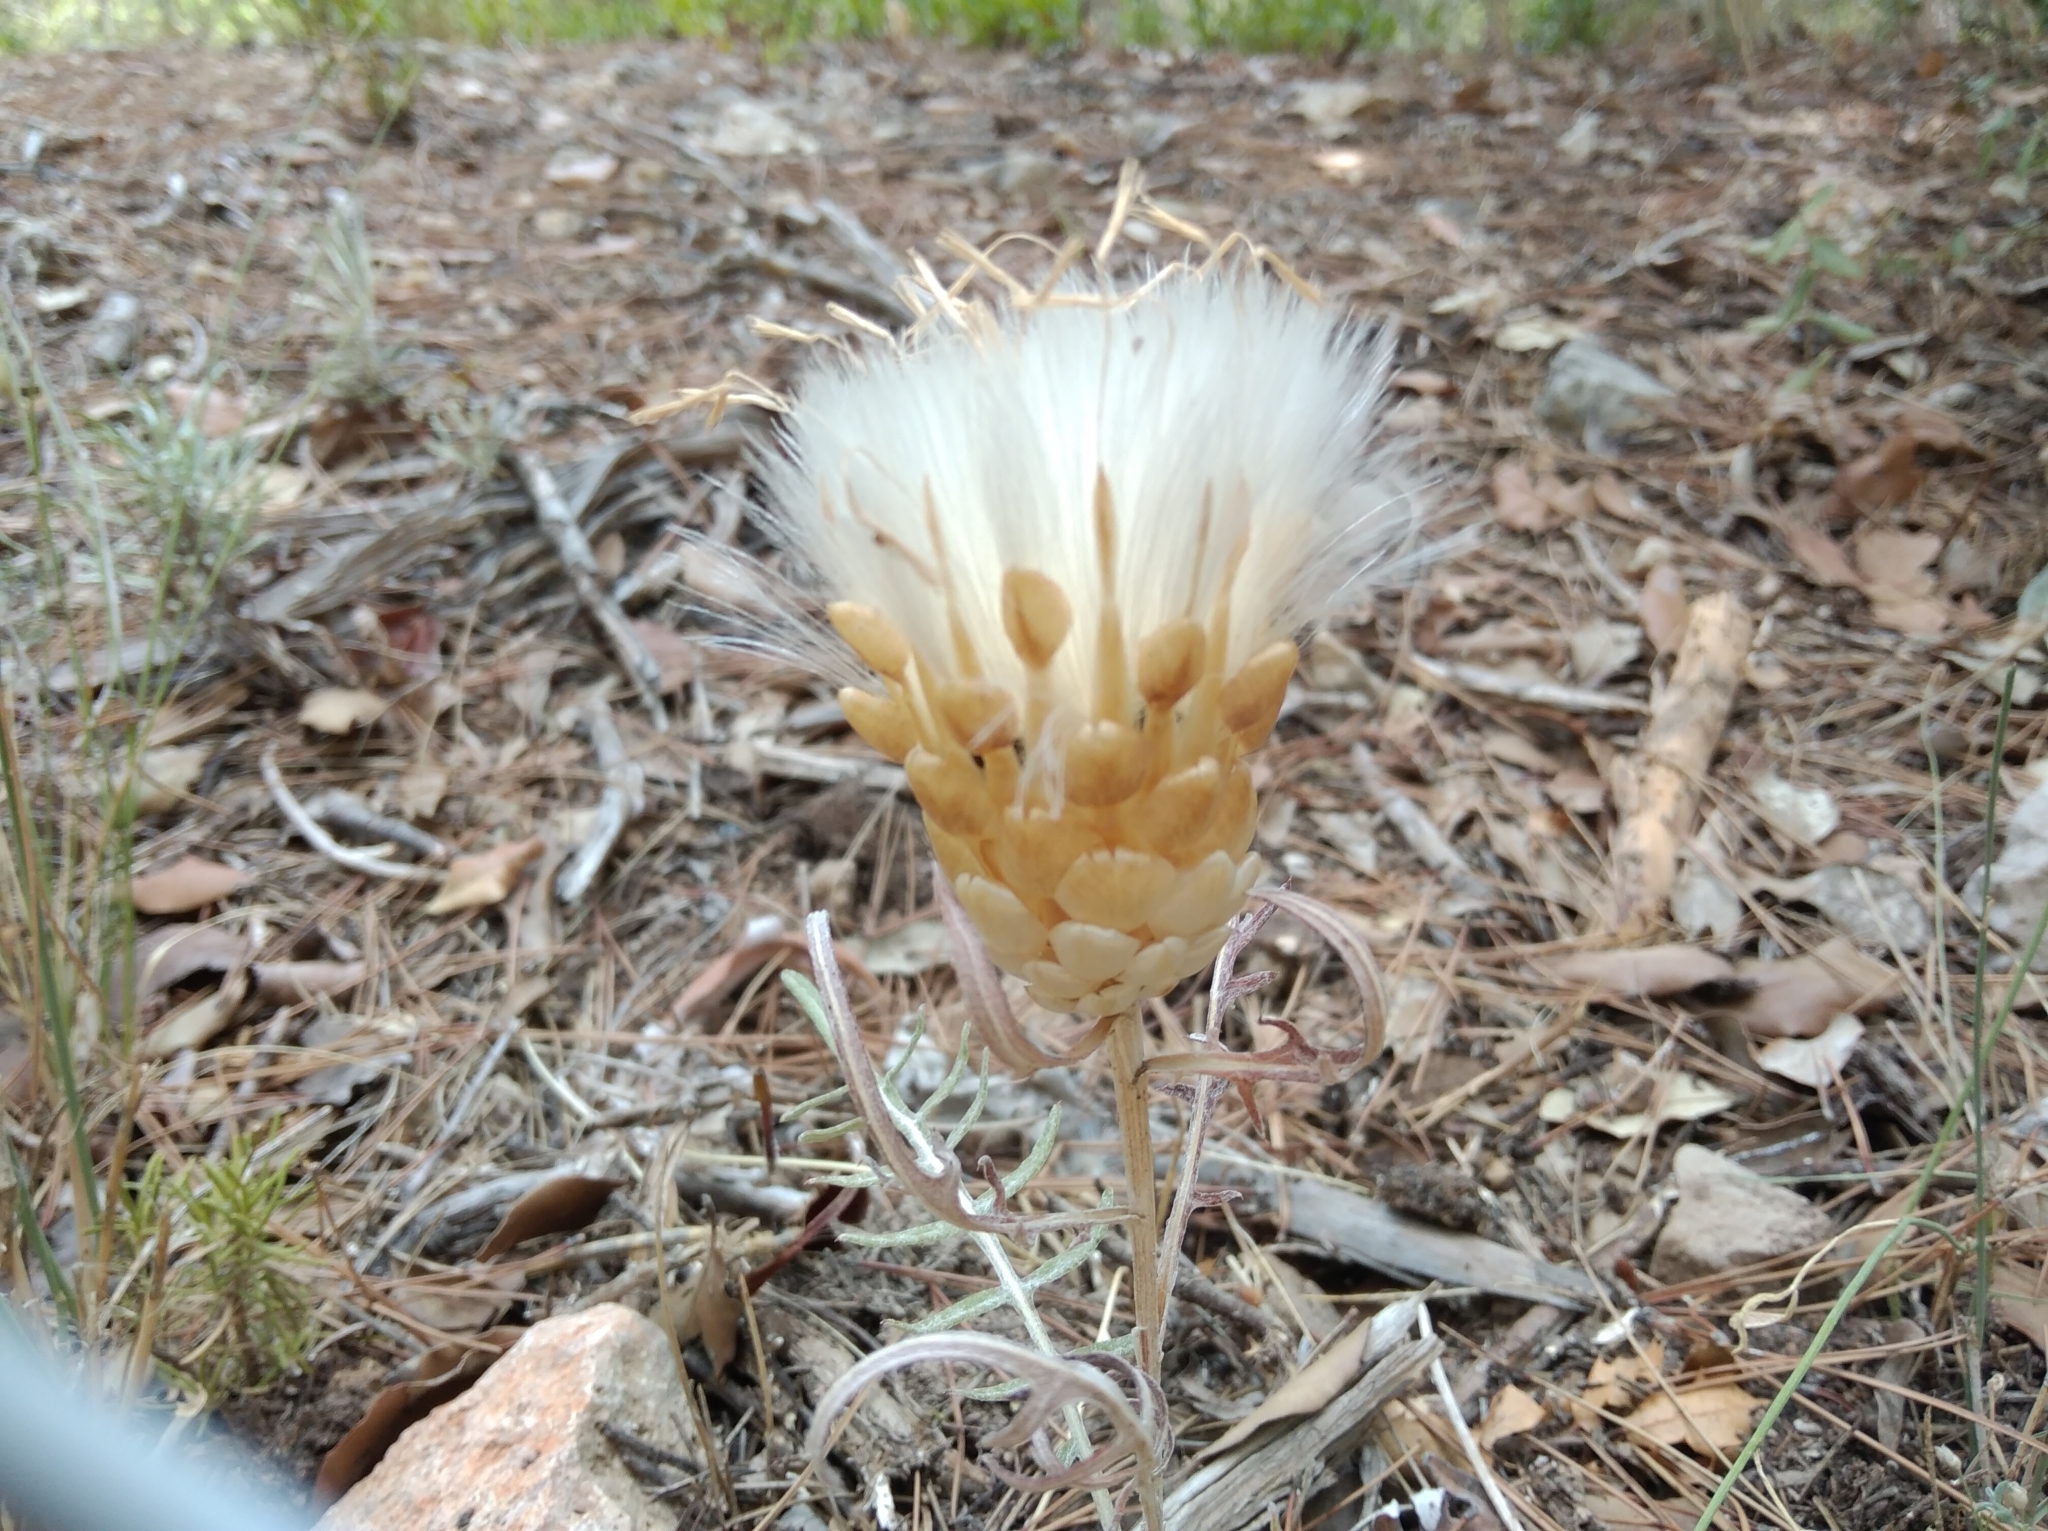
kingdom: Plantae
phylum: Tracheophyta
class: Magnoliopsida
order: Asterales
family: Asteraceae
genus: Leuzea
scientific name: Leuzea conifera
